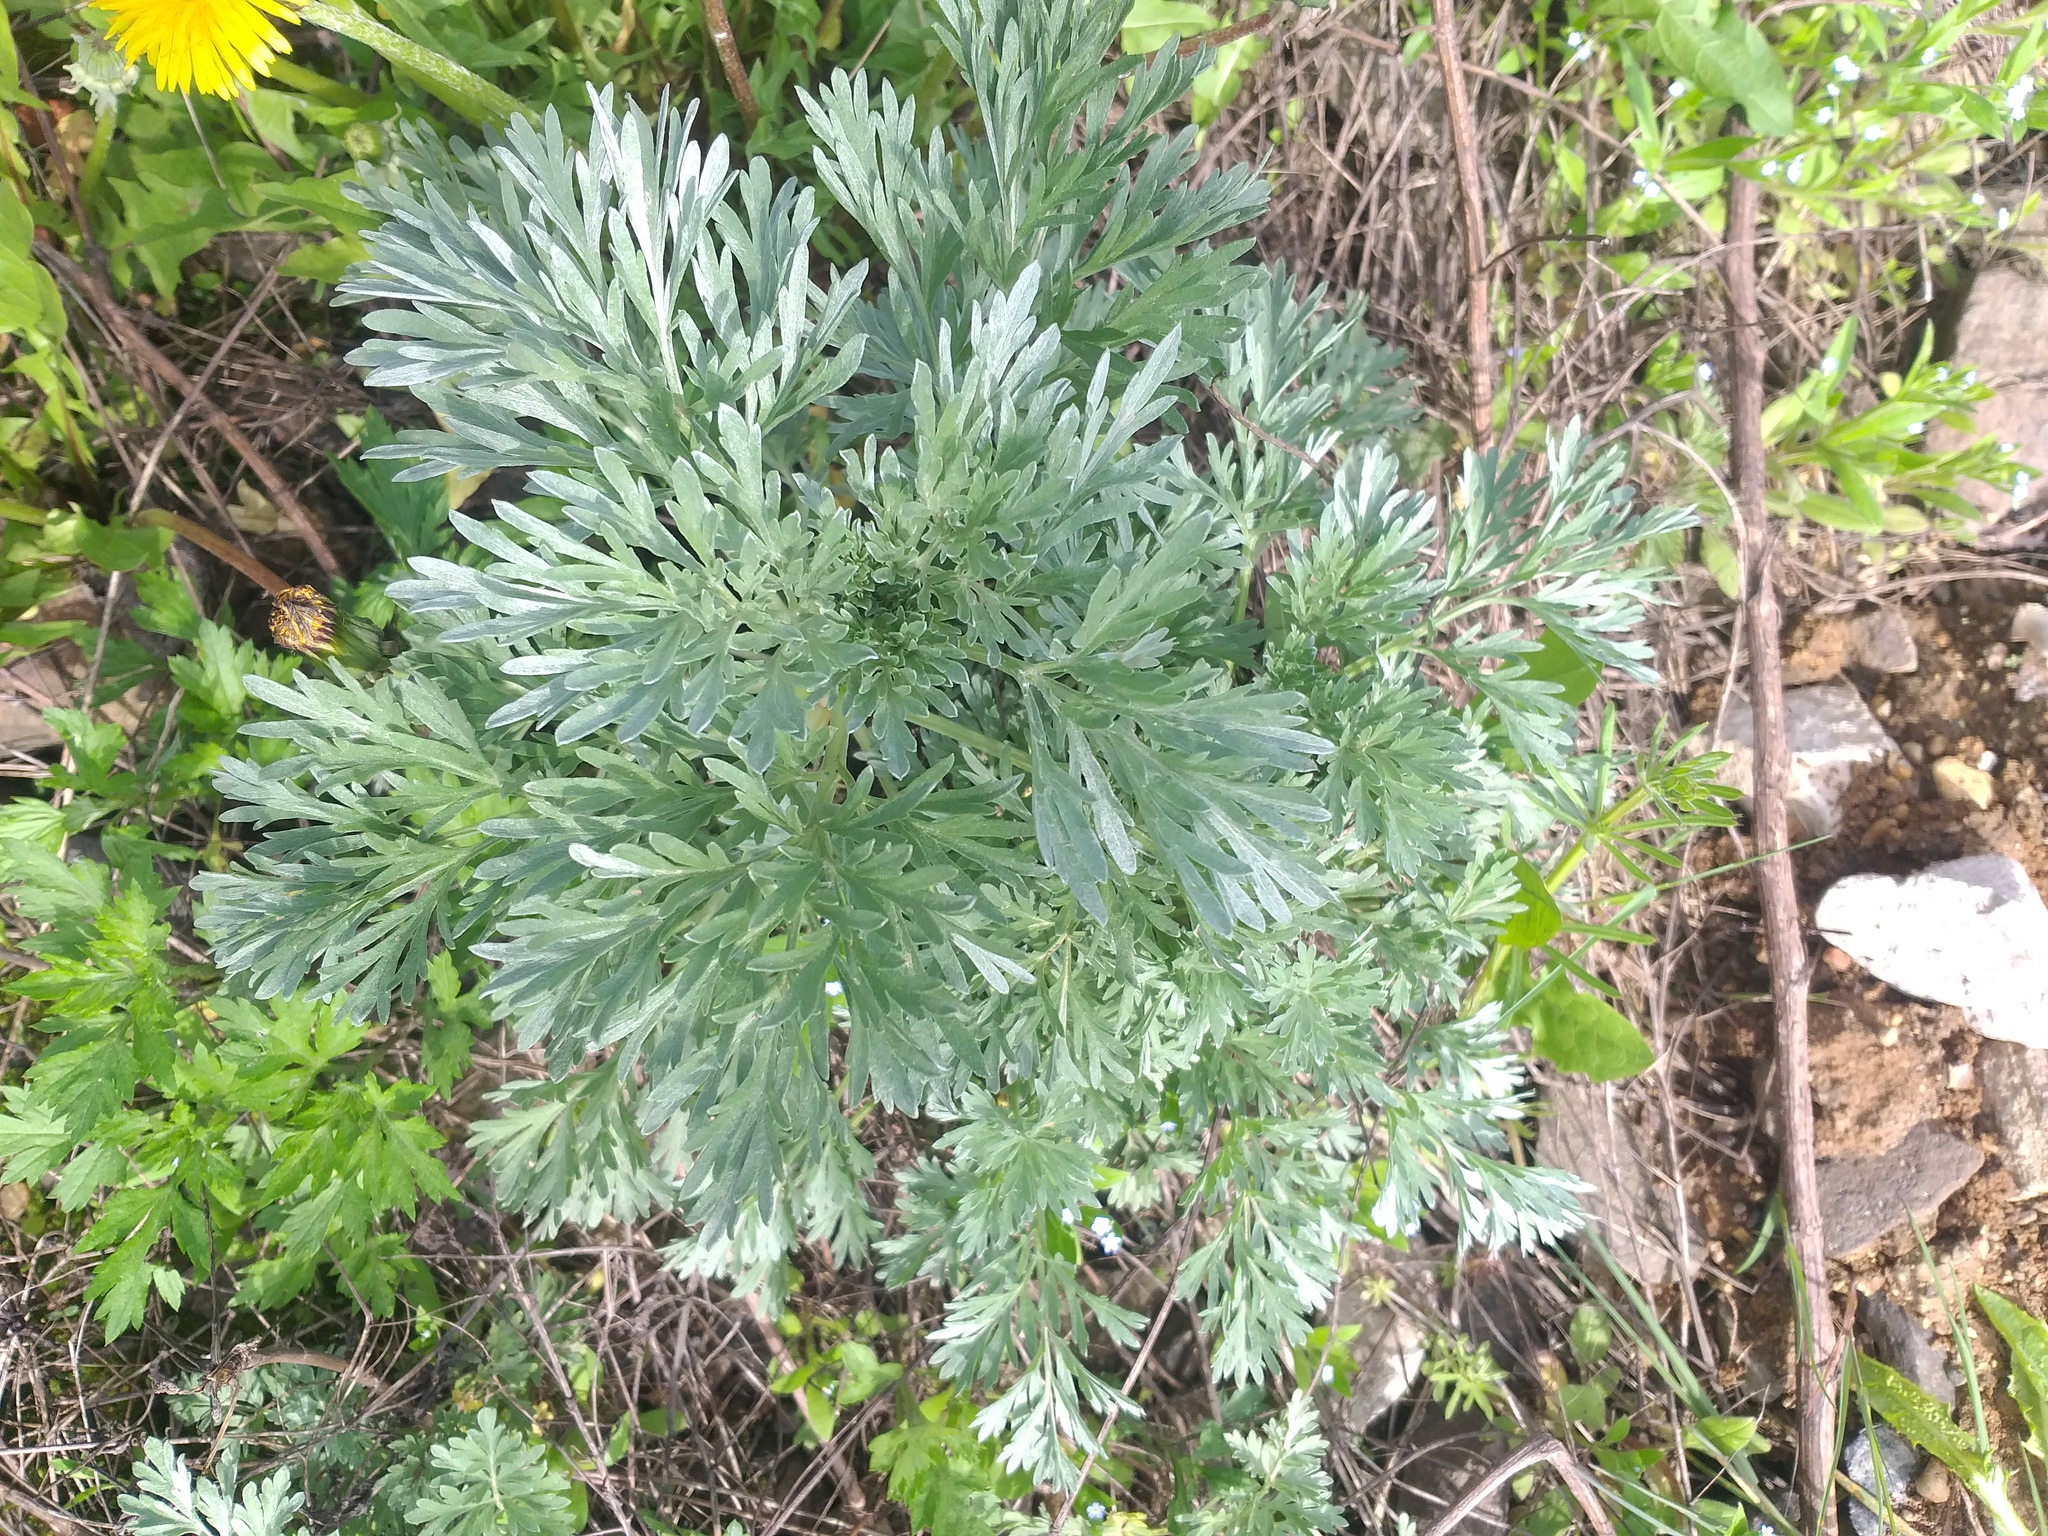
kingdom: Plantae
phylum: Tracheophyta
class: Magnoliopsida
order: Asterales
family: Asteraceae
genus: Artemisia
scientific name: Artemisia absinthium
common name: Wormwood
